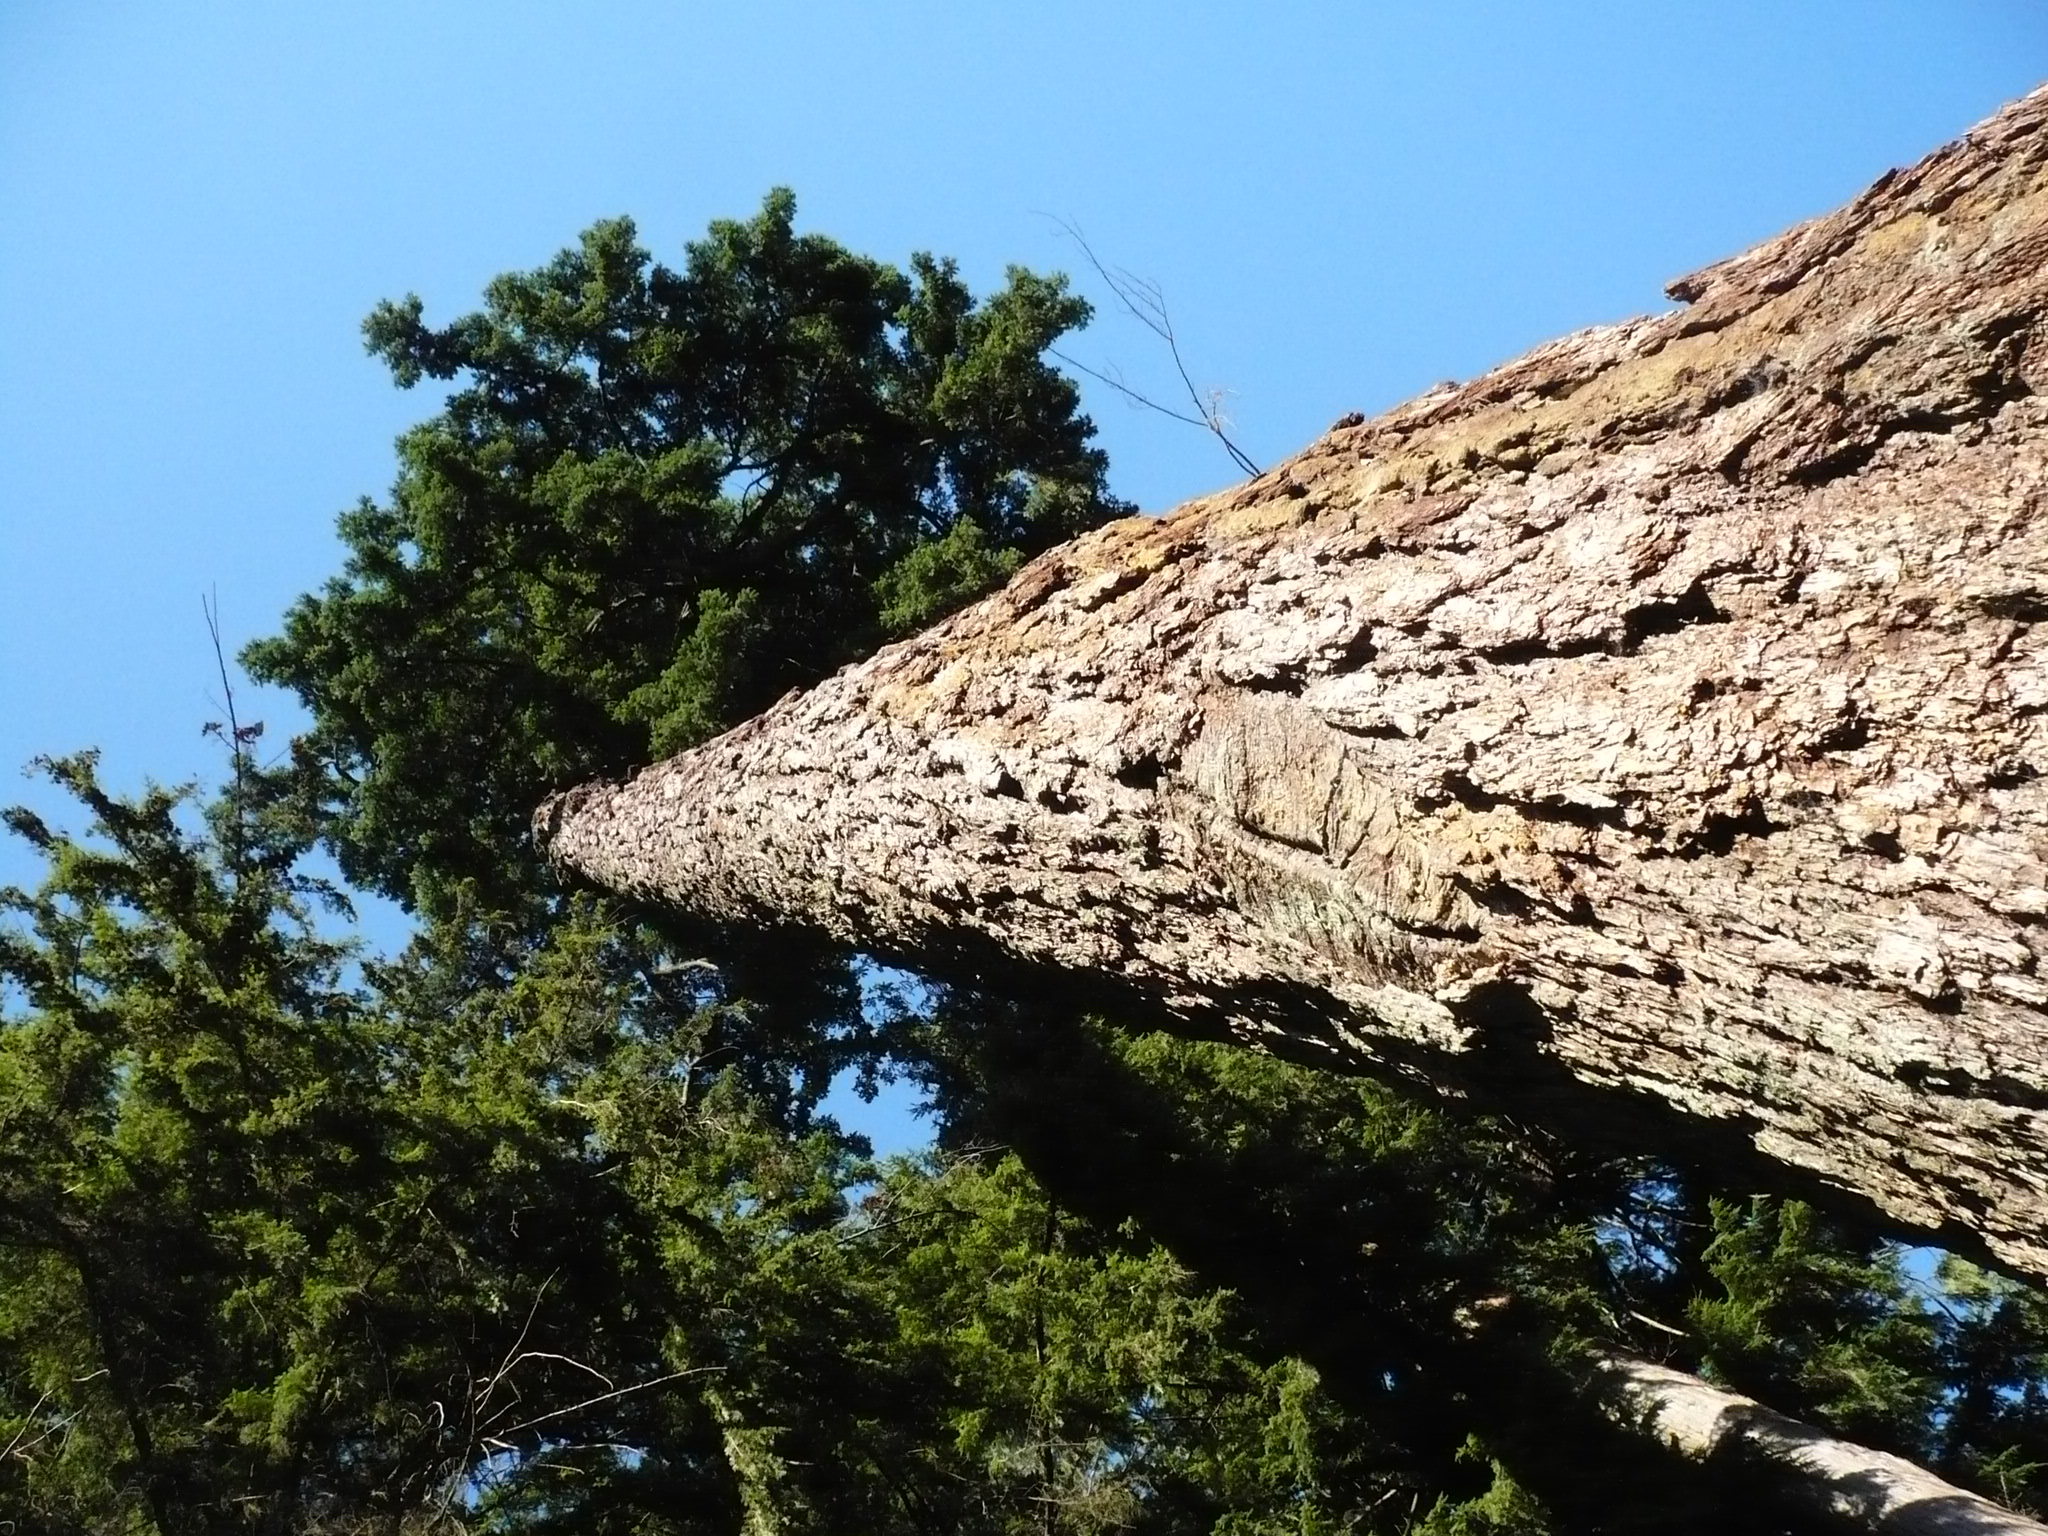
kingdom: Plantae
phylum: Tracheophyta
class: Pinopsida
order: Pinales
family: Pinaceae
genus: Tsuga
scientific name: Tsuga heterophylla
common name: Western hemlock
